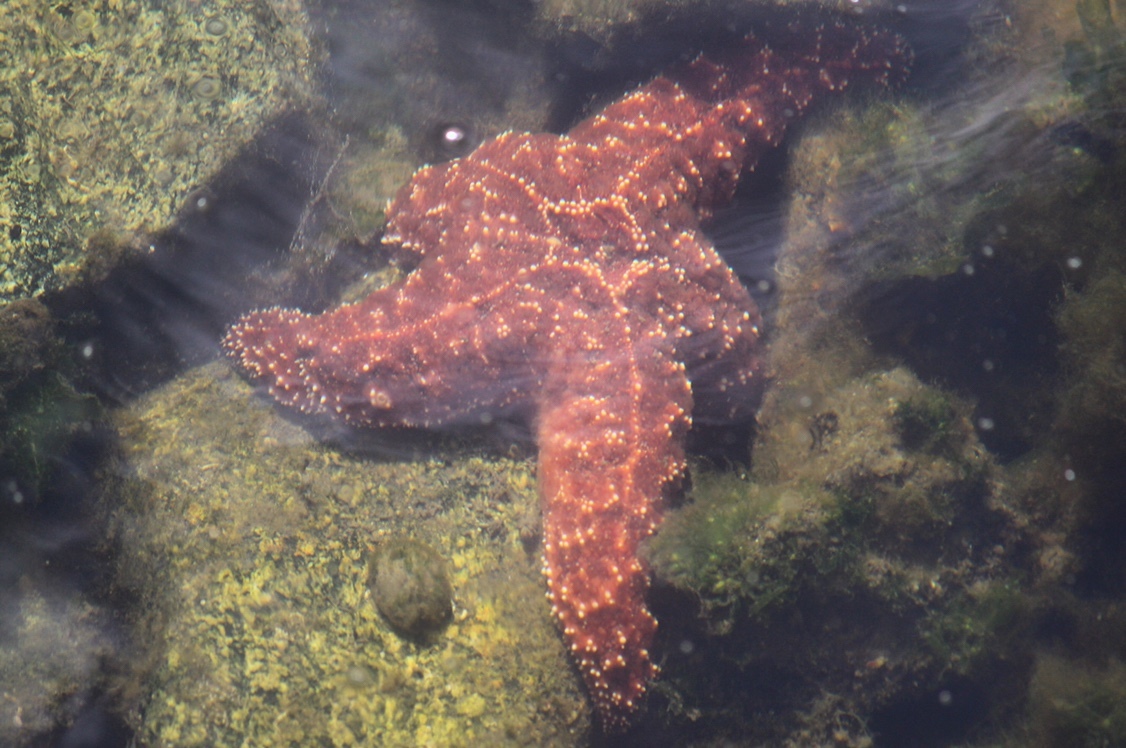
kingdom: Animalia
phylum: Echinodermata
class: Asteroidea
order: Forcipulatida
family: Asteriidae
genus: Pisaster
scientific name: Pisaster ochraceus
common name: Ochre stars
